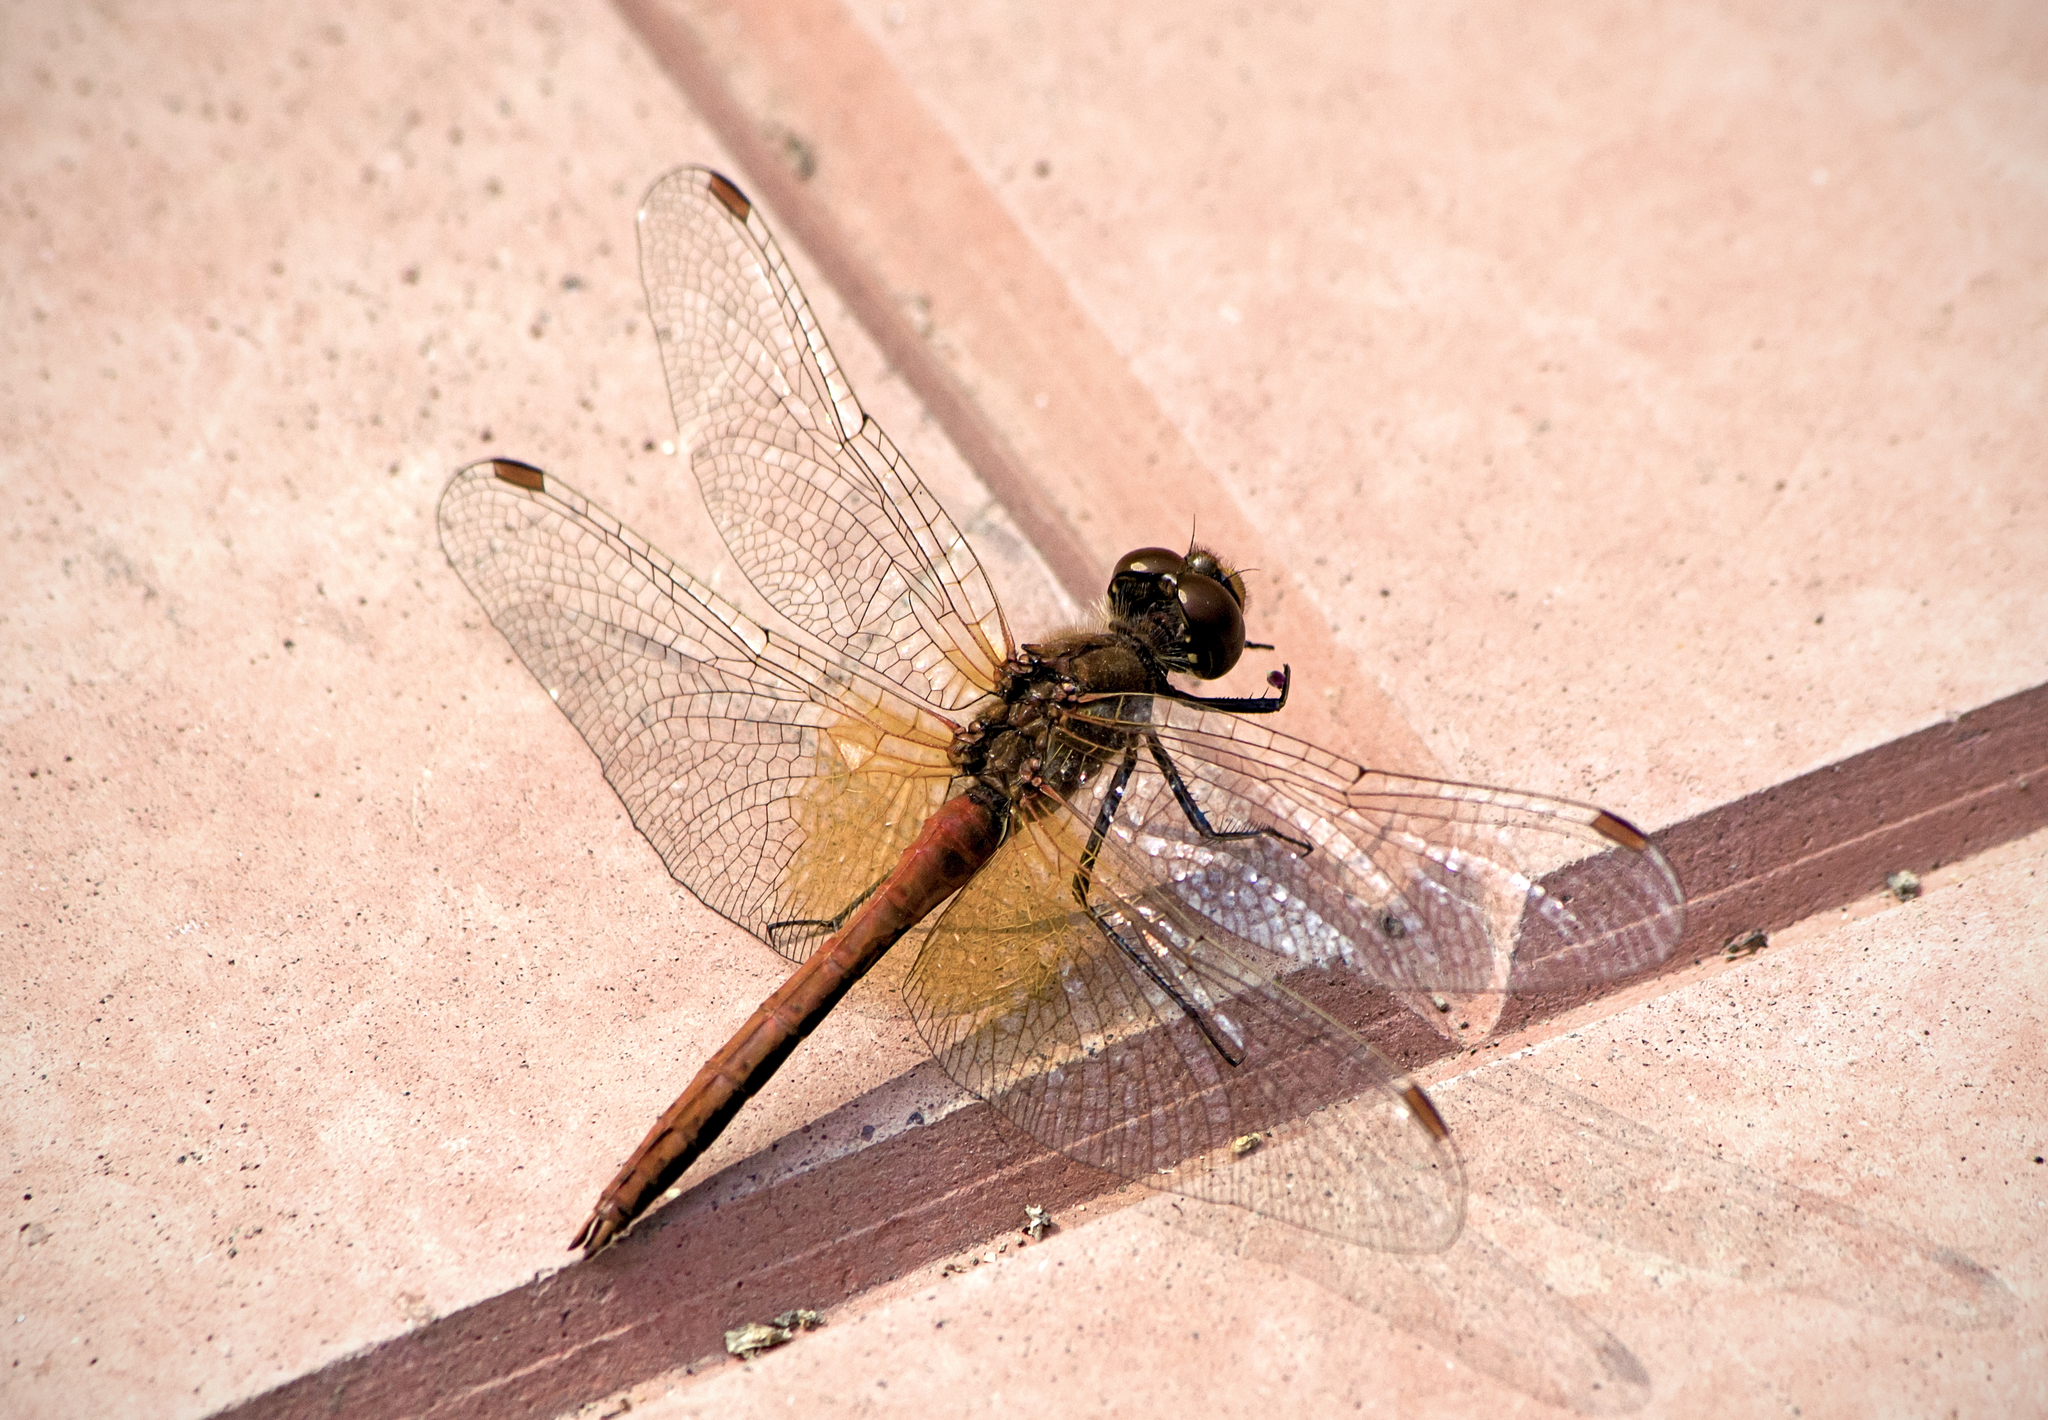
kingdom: Animalia
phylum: Arthropoda
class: Insecta
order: Odonata
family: Libellulidae
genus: Sympetrum
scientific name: Sympetrum flaveolum
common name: Yellow-winged darter
